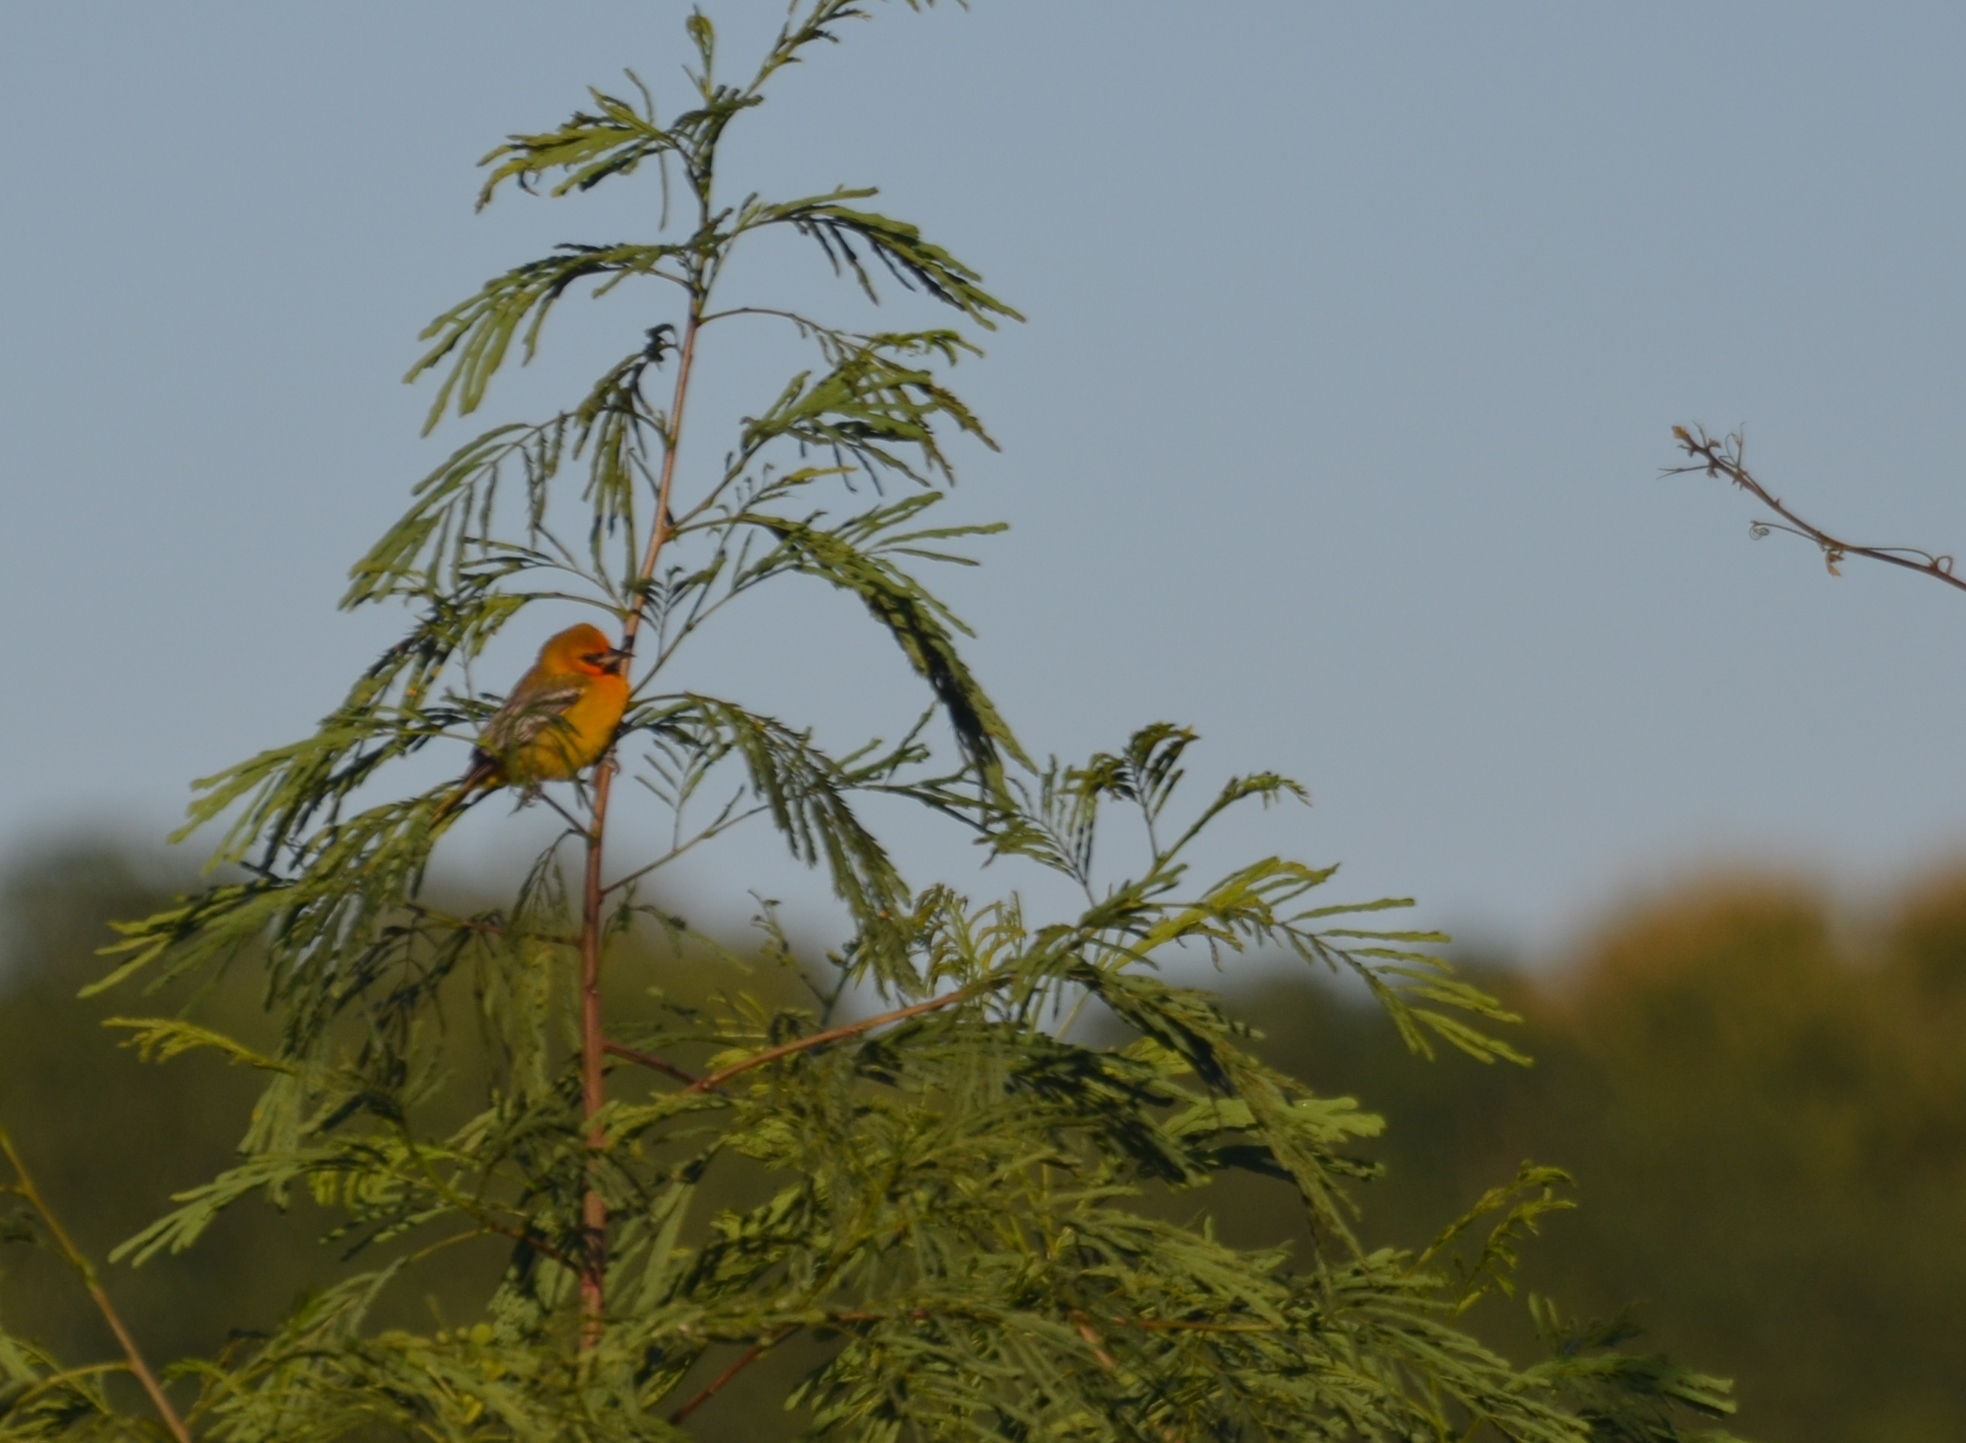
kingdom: Animalia
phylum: Chordata
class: Aves
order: Passeriformes
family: Icteridae
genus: Icterus
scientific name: Icterus pustulatus
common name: Streak-backed oriole
